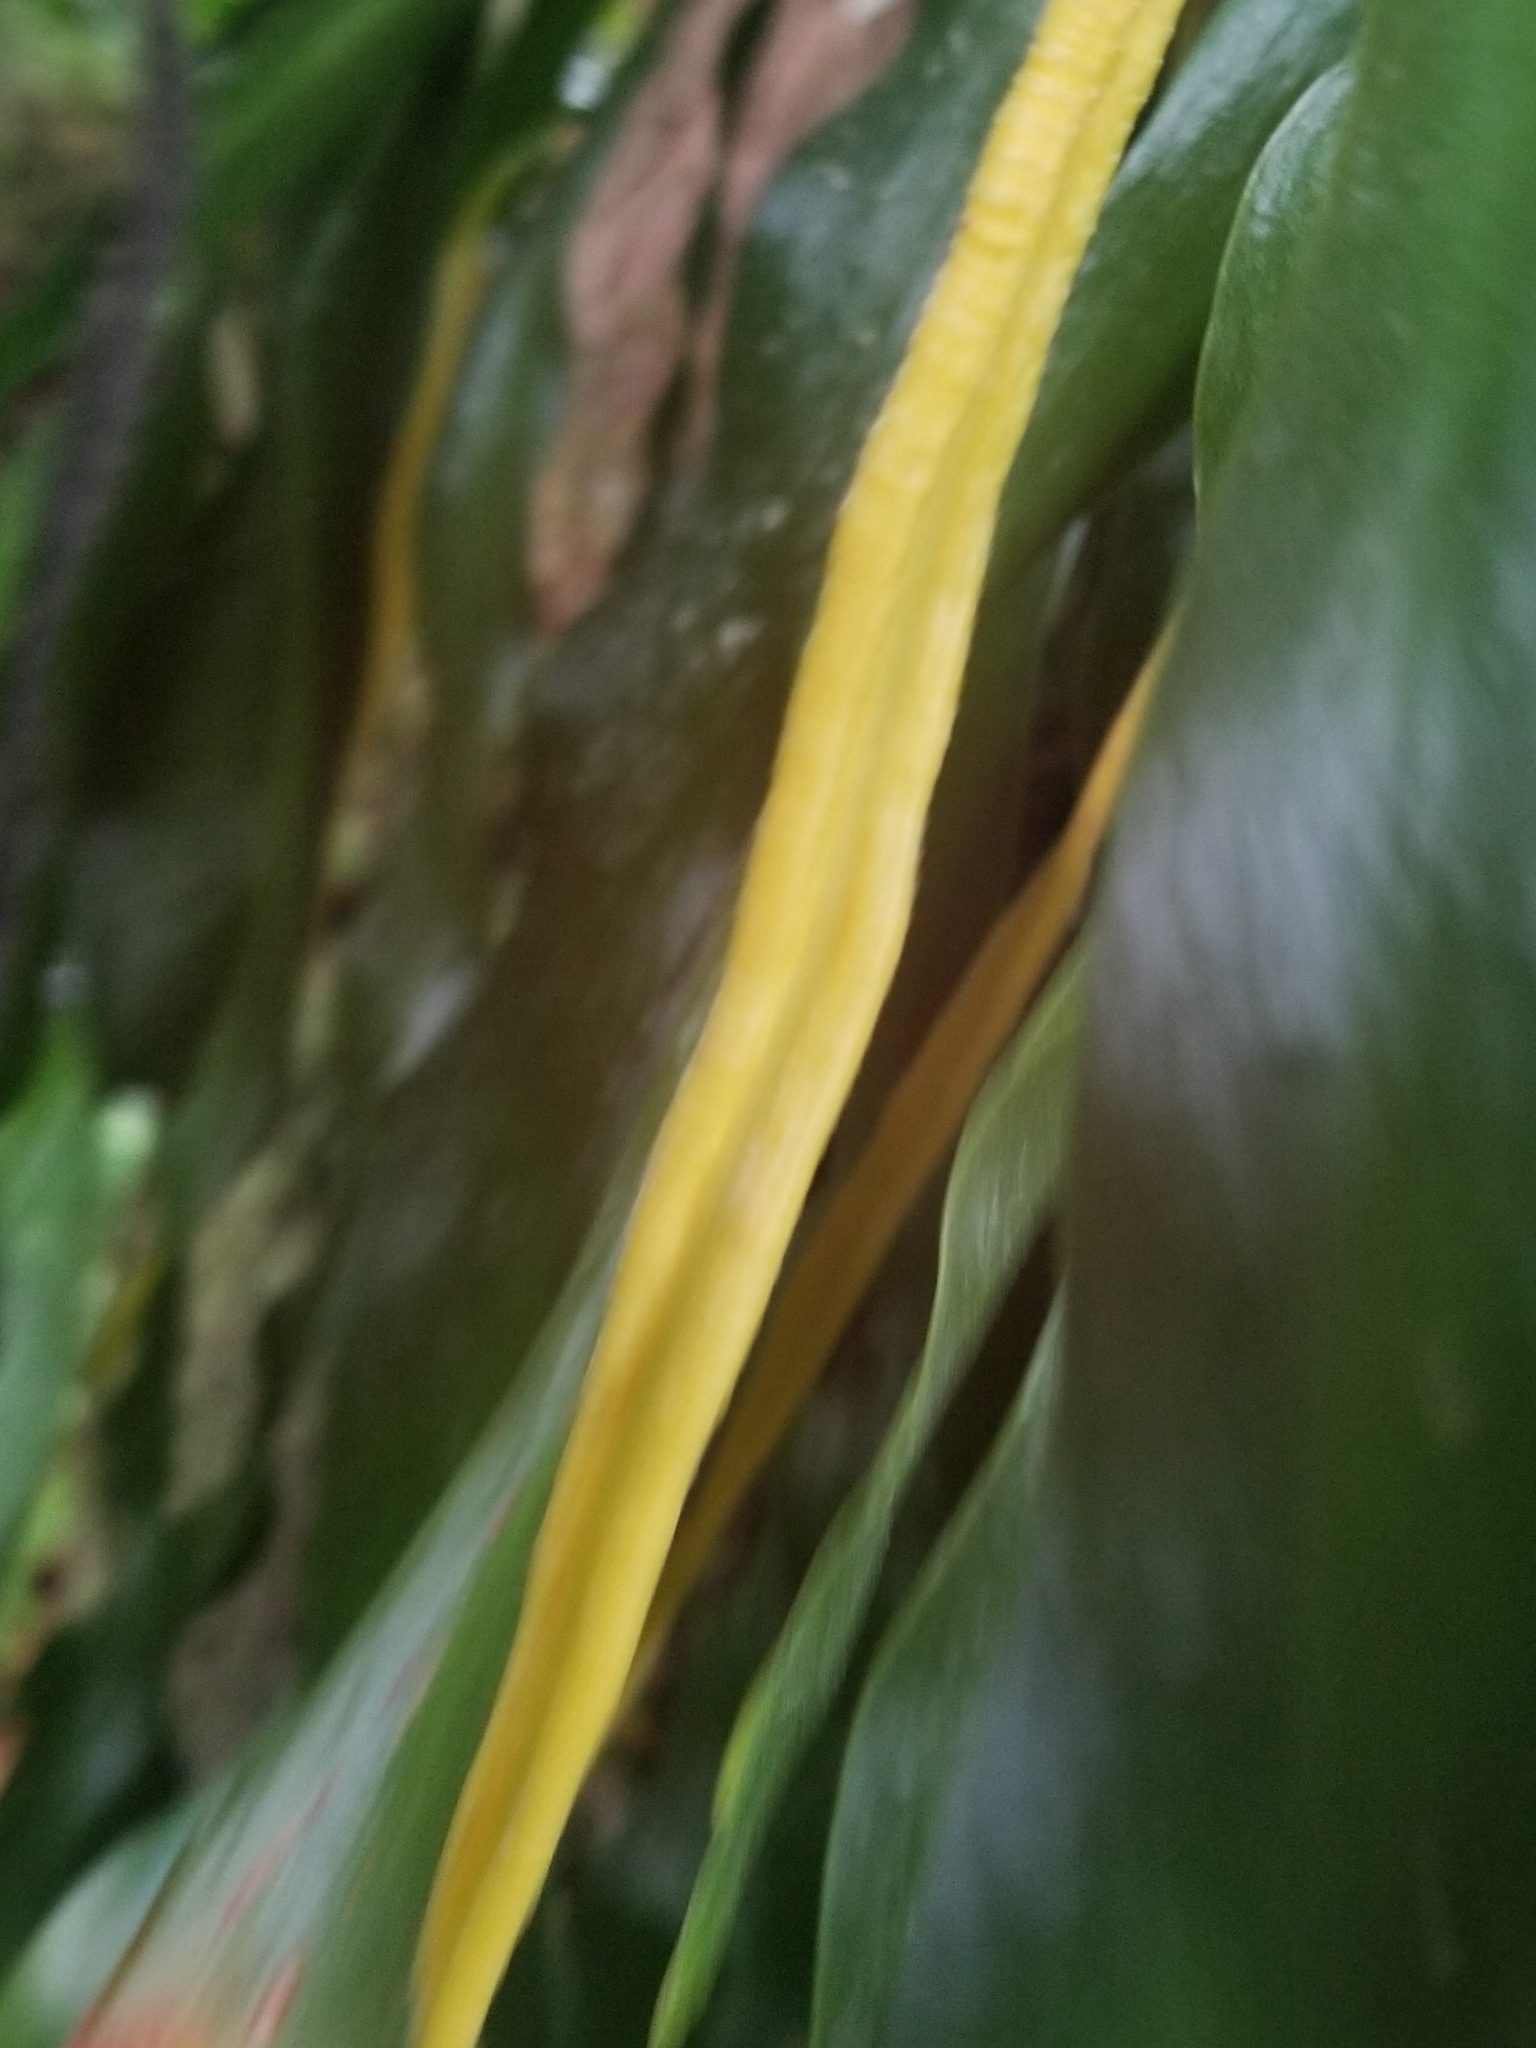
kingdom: Plantae
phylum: Tracheophyta
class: Polypodiopsida
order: Ophioglossales
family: Ophioglossaceae
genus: Ophioderma
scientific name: Ophioderma pendulum
